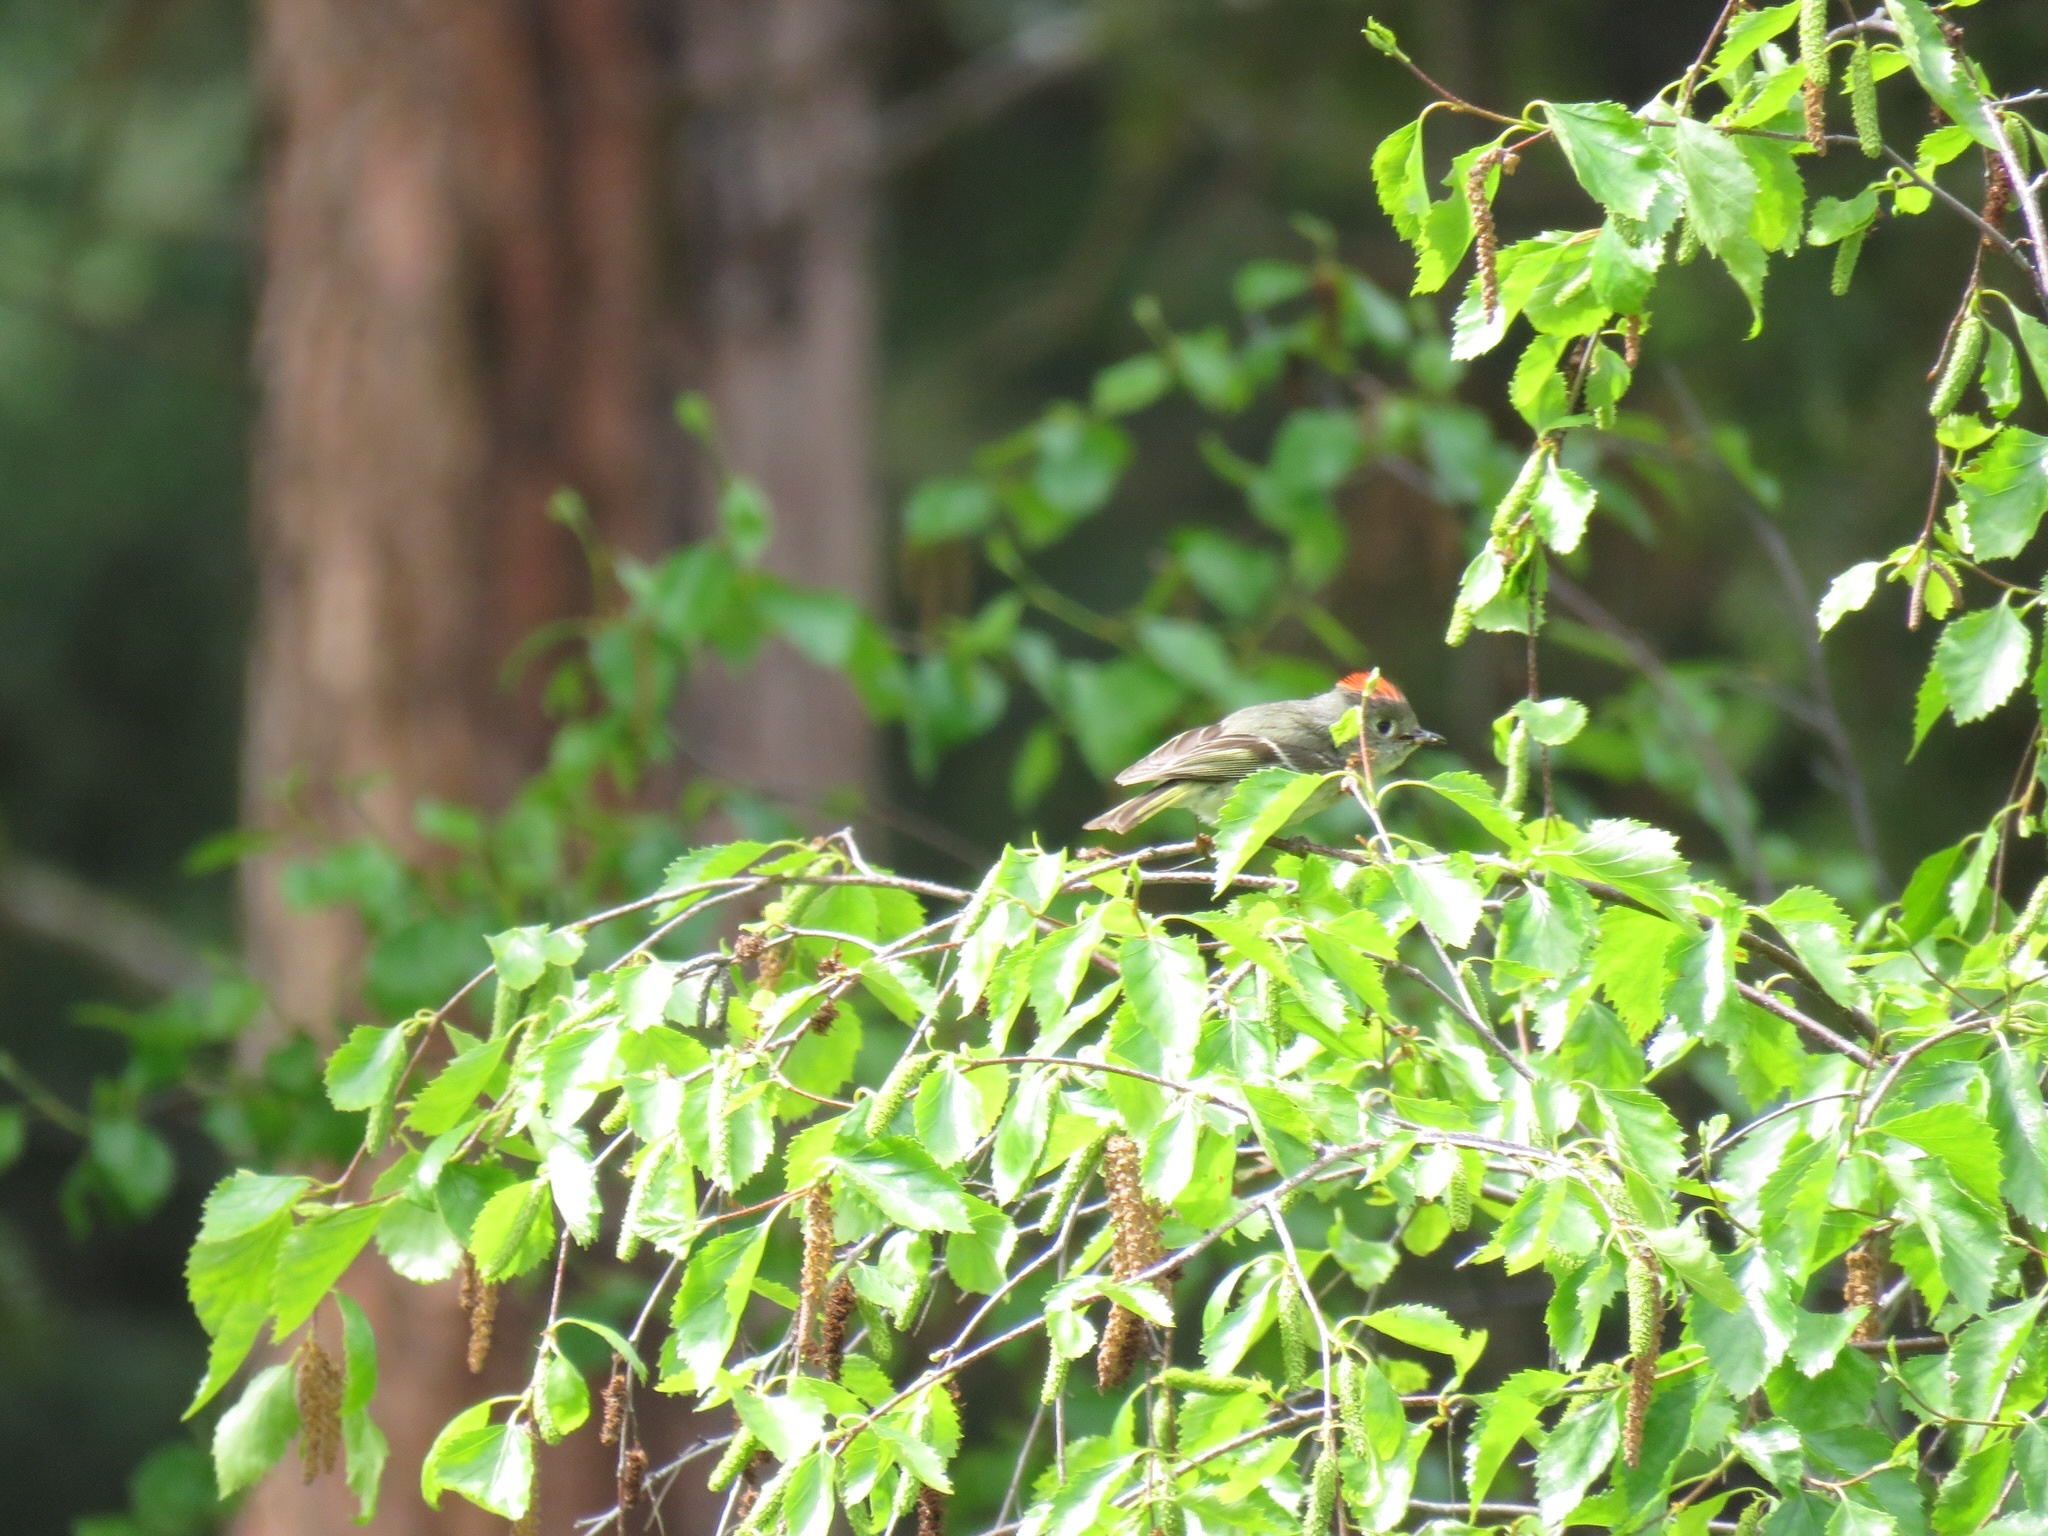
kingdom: Animalia
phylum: Chordata
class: Aves
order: Passeriformes
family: Regulidae
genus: Regulus
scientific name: Regulus calendula
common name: Ruby-crowned kinglet
